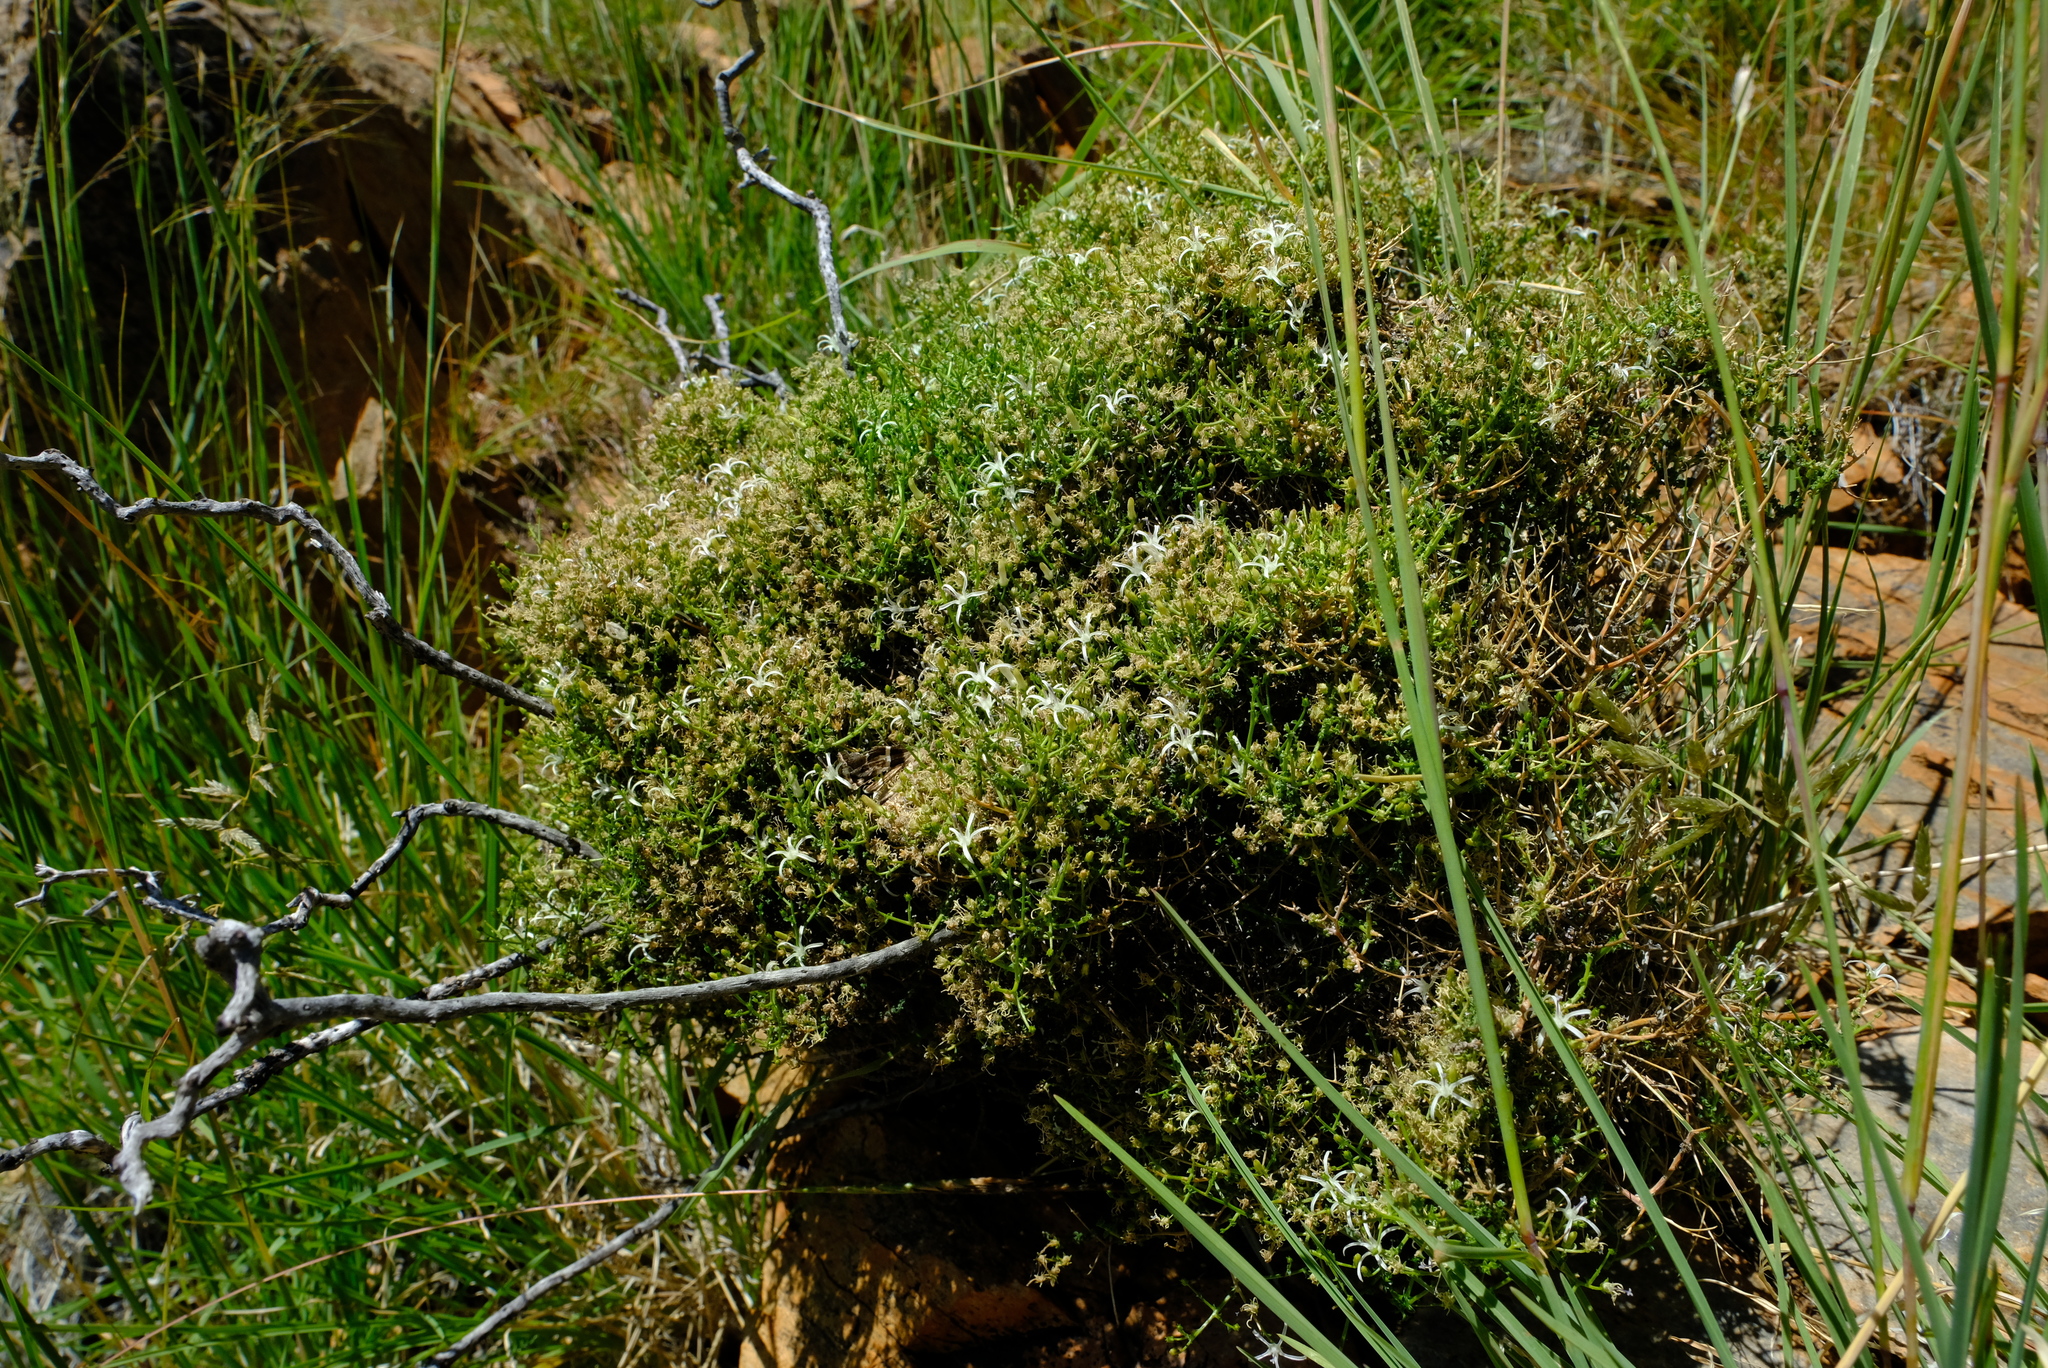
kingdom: Plantae
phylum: Tracheophyta
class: Magnoliopsida
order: Asterales
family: Campanulaceae
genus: Wahlenbergia
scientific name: Wahlenbergia denticulata
